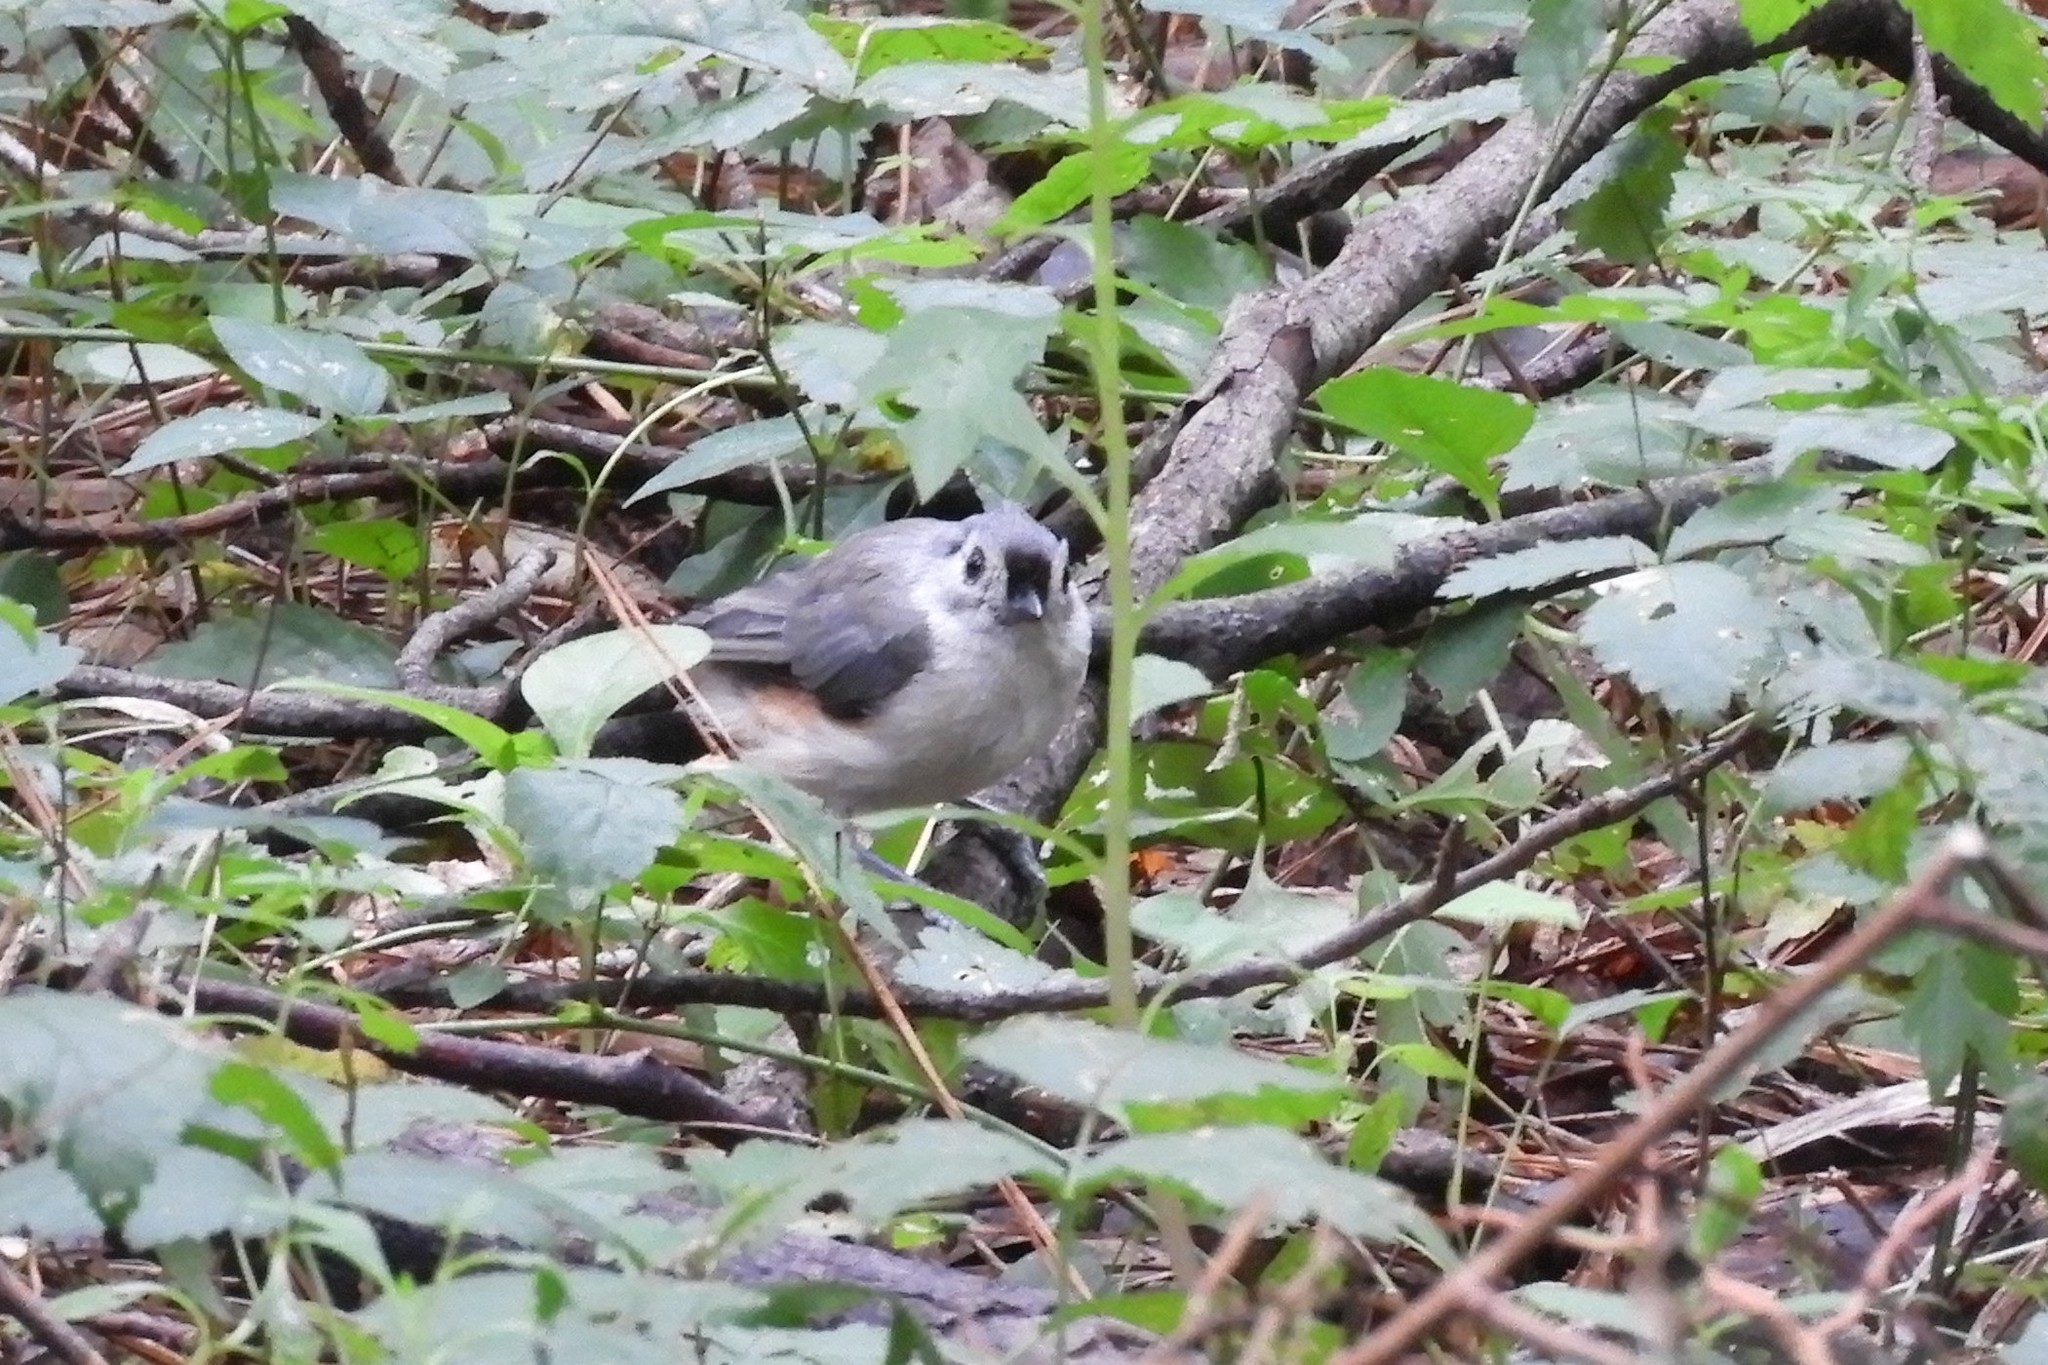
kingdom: Animalia
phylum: Chordata
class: Aves
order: Passeriformes
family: Paridae
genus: Baeolophus
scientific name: Baeolophus bicolor
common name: Tufted titmouse
